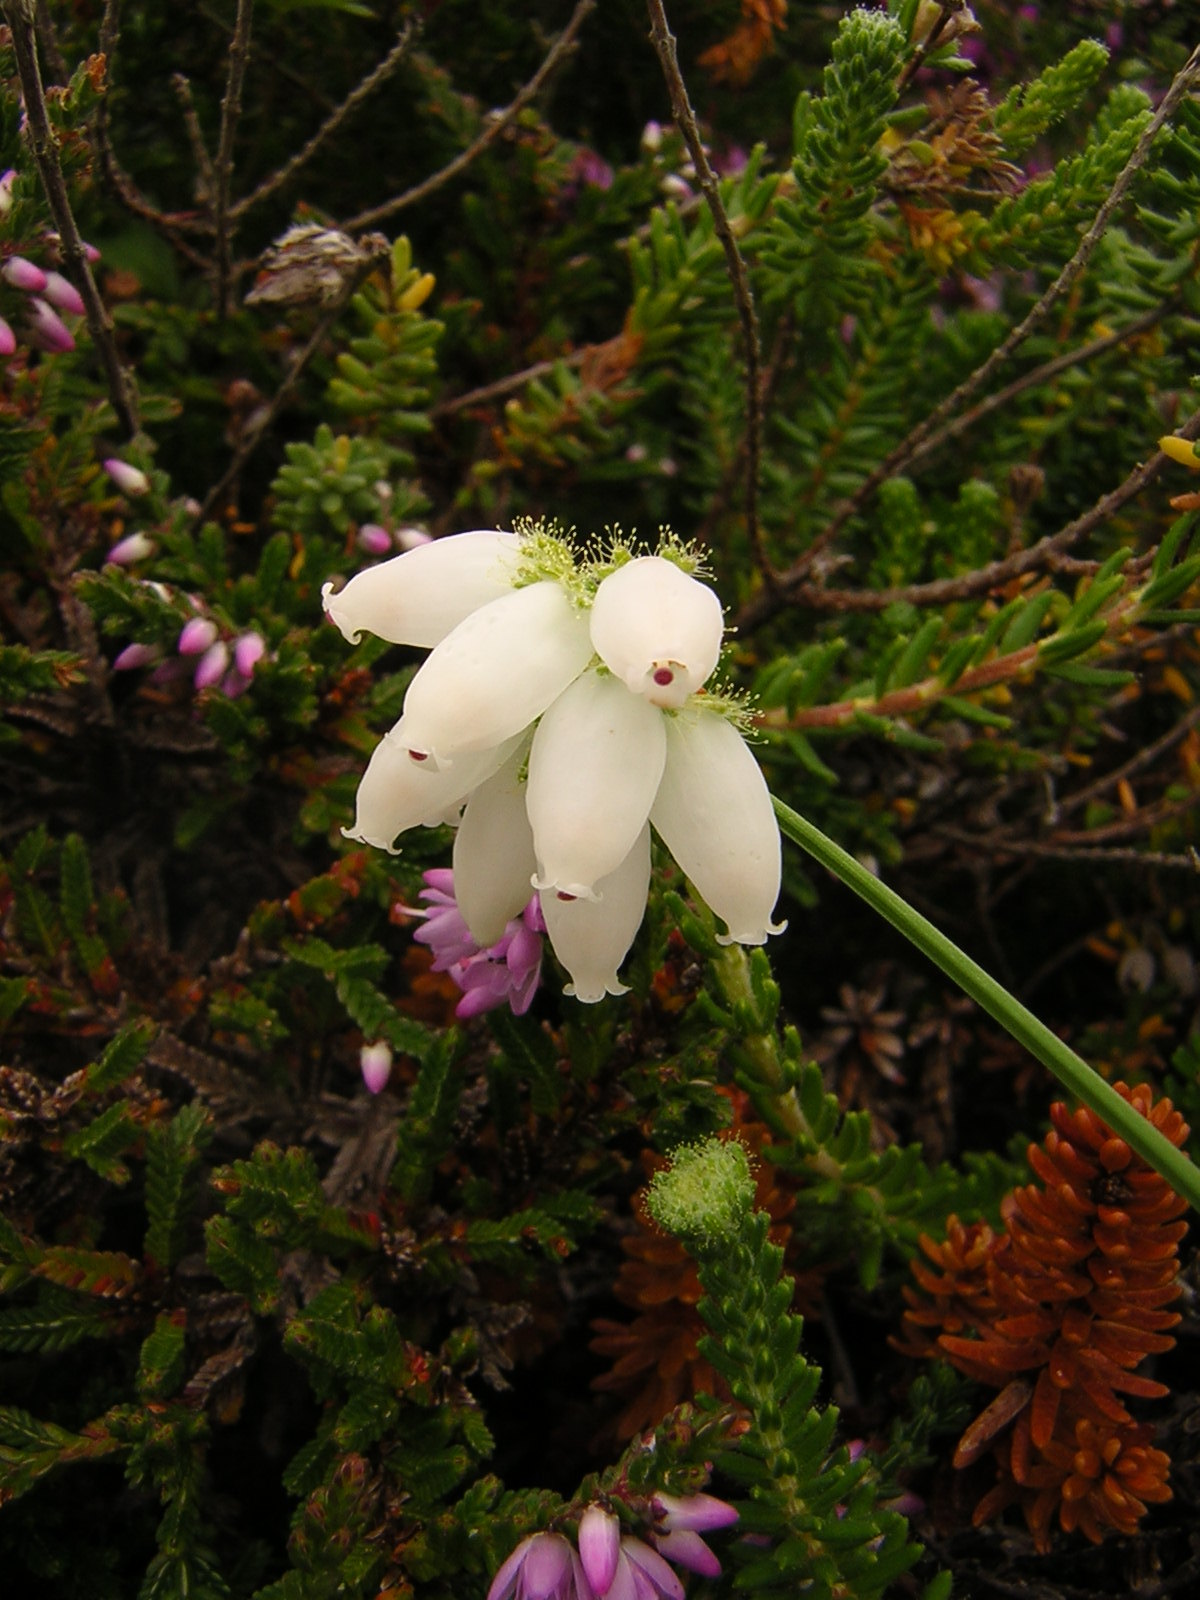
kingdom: Plantae
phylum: Tracheophyta
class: Magnoliopsida
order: Ericales
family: Ericaceae
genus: Erica
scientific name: Erica tetralix
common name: Cross-leaved heath
